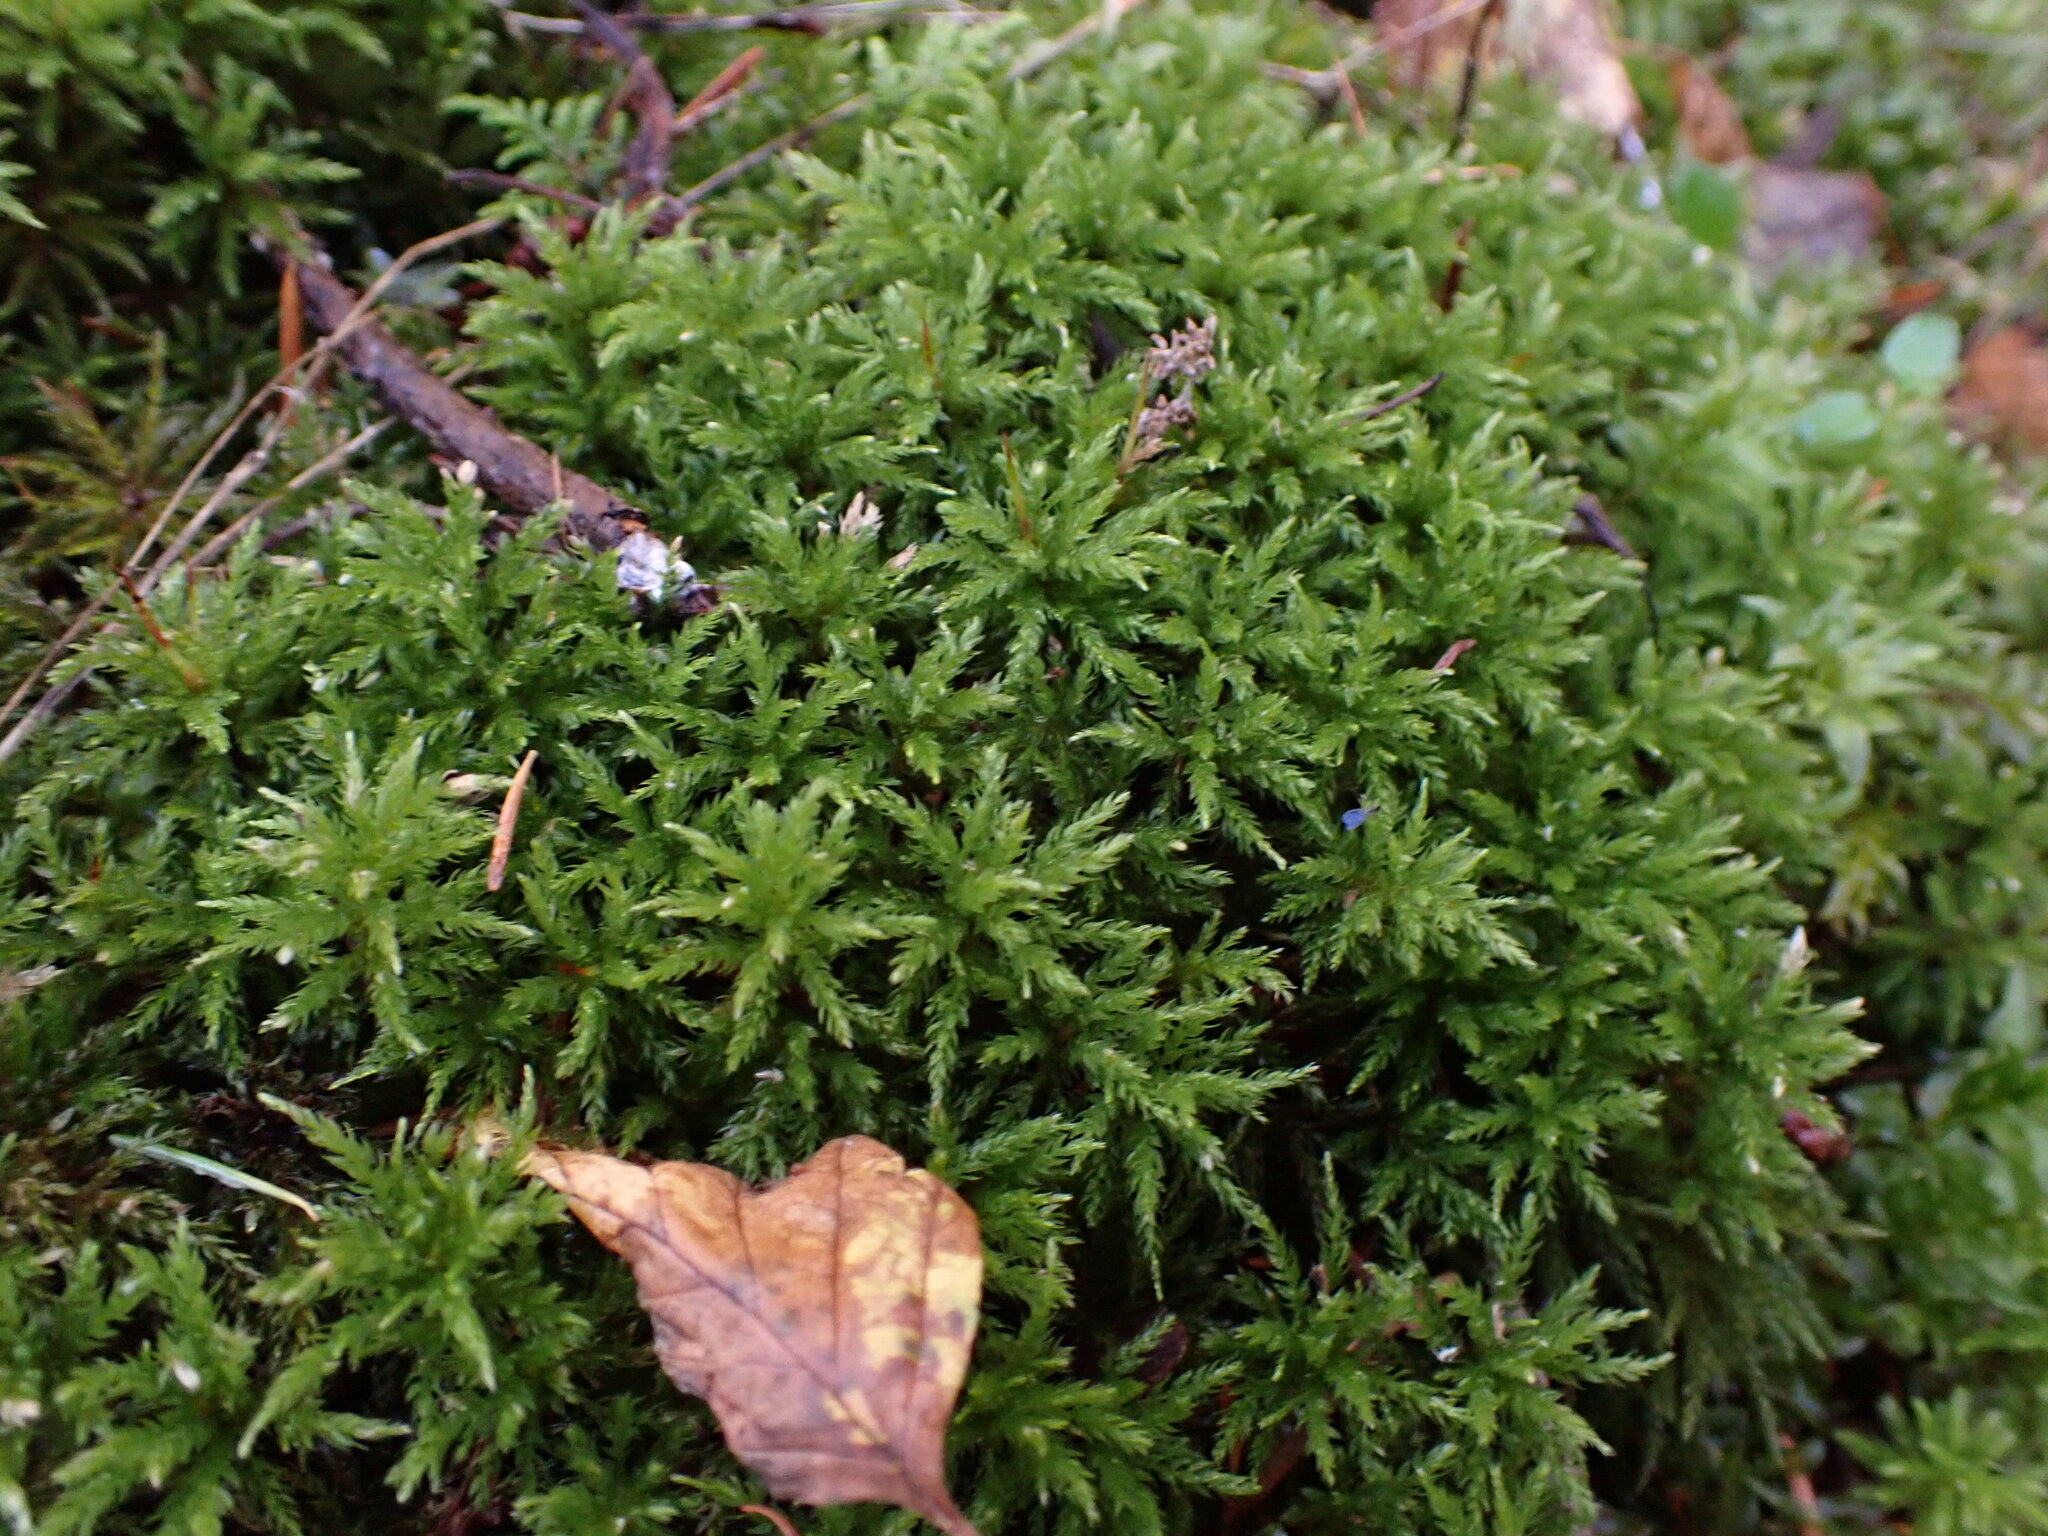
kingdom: Plantae
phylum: Bryophyta
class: Bryopsida
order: Bryales
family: Mniaceae
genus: Leucolepis
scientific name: Leucolepis acanthoneura
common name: Leucolepis umbrella moss
